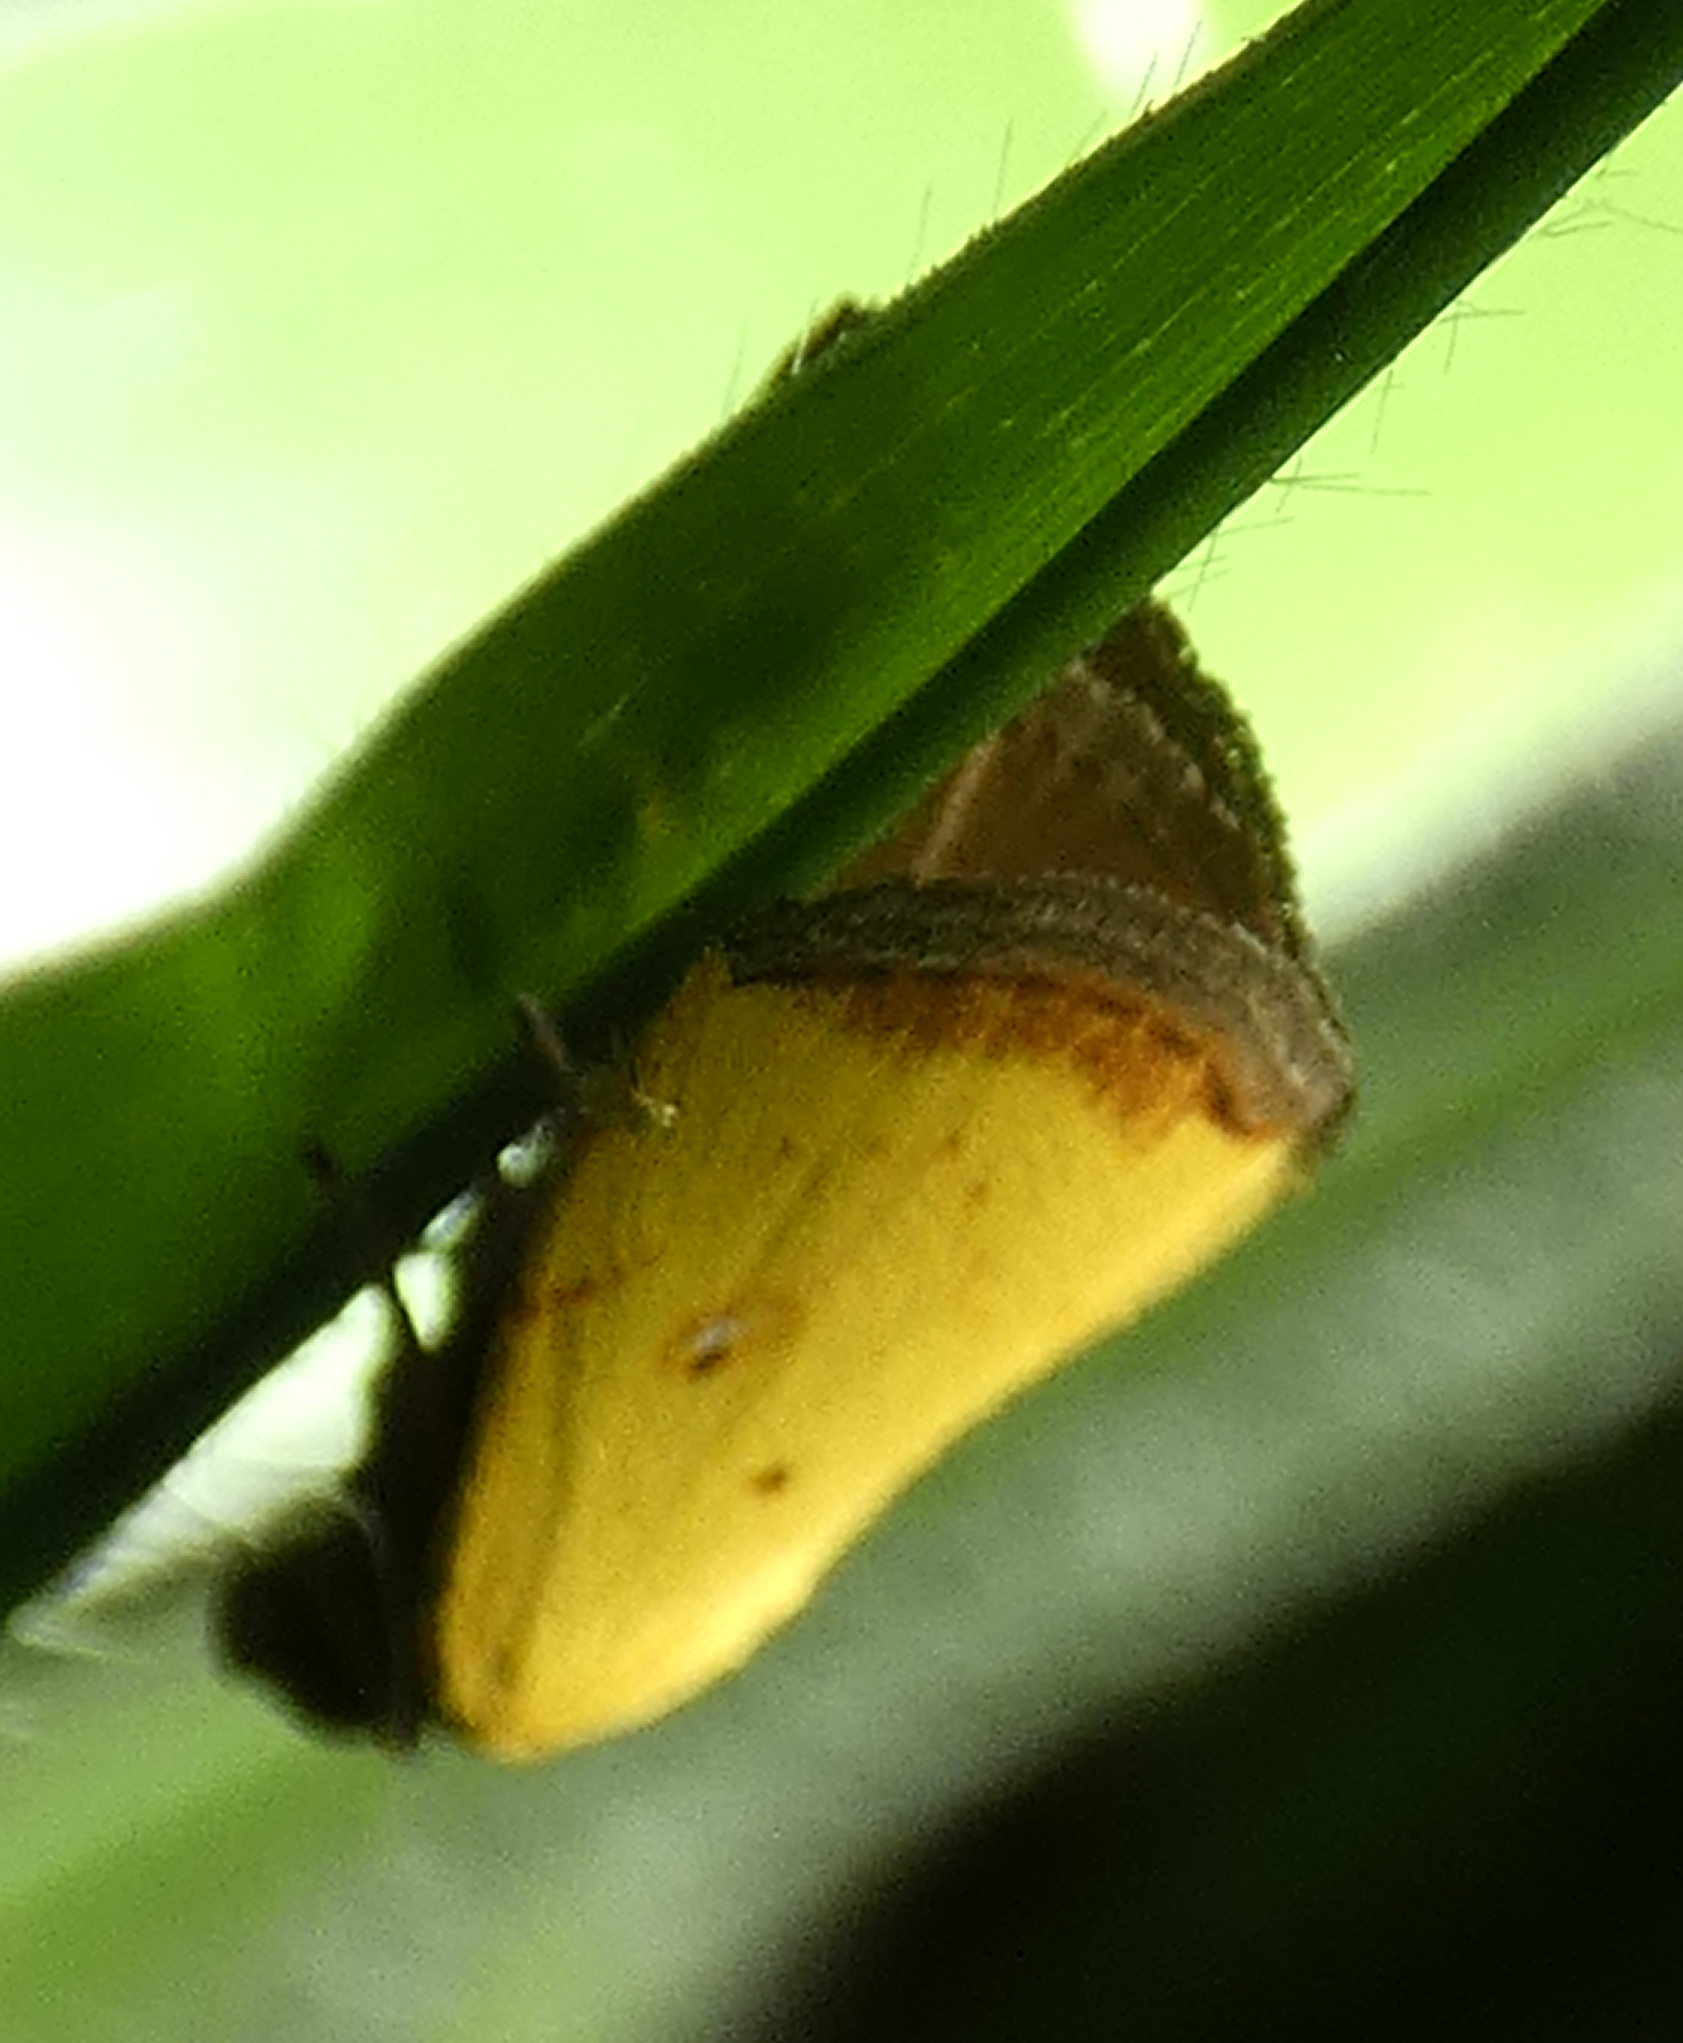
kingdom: Animalia
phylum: Arthropoda
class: Insecta
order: Lepidoptera
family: Noctuidae
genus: Marimatha
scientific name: Marimatha botyoides
